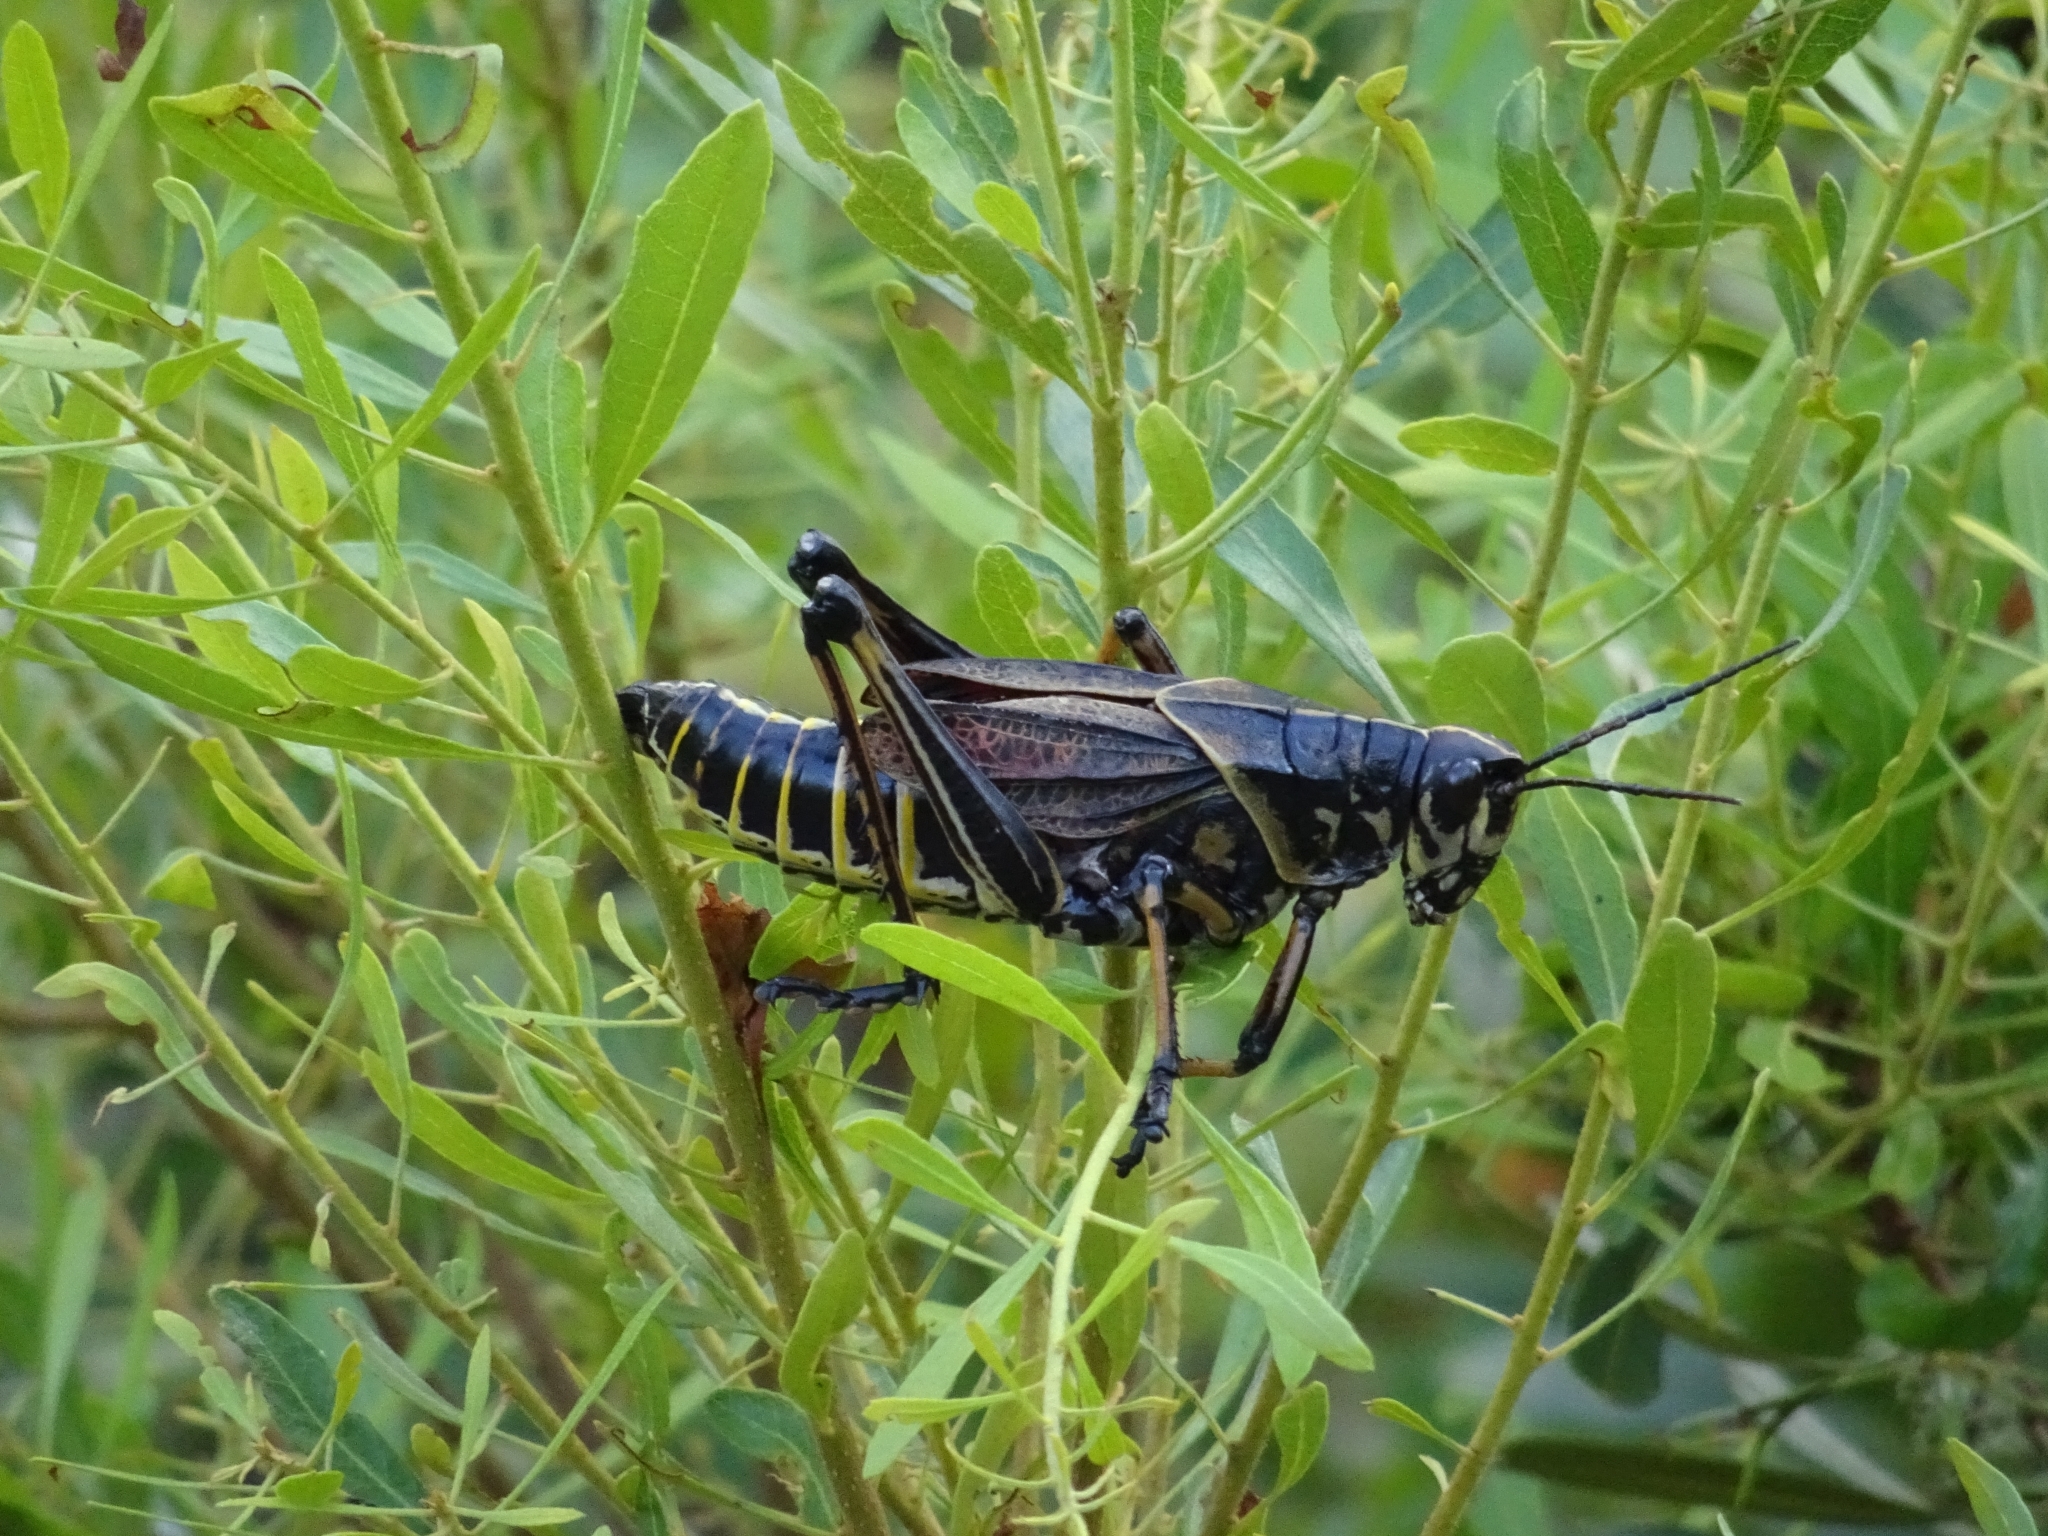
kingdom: Animalia
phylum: Arthropoda
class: Insecta
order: Orthoptera
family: Romaleidae
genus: Romalea
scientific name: Romalea microptera
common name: Eastern lubber grasshopper
